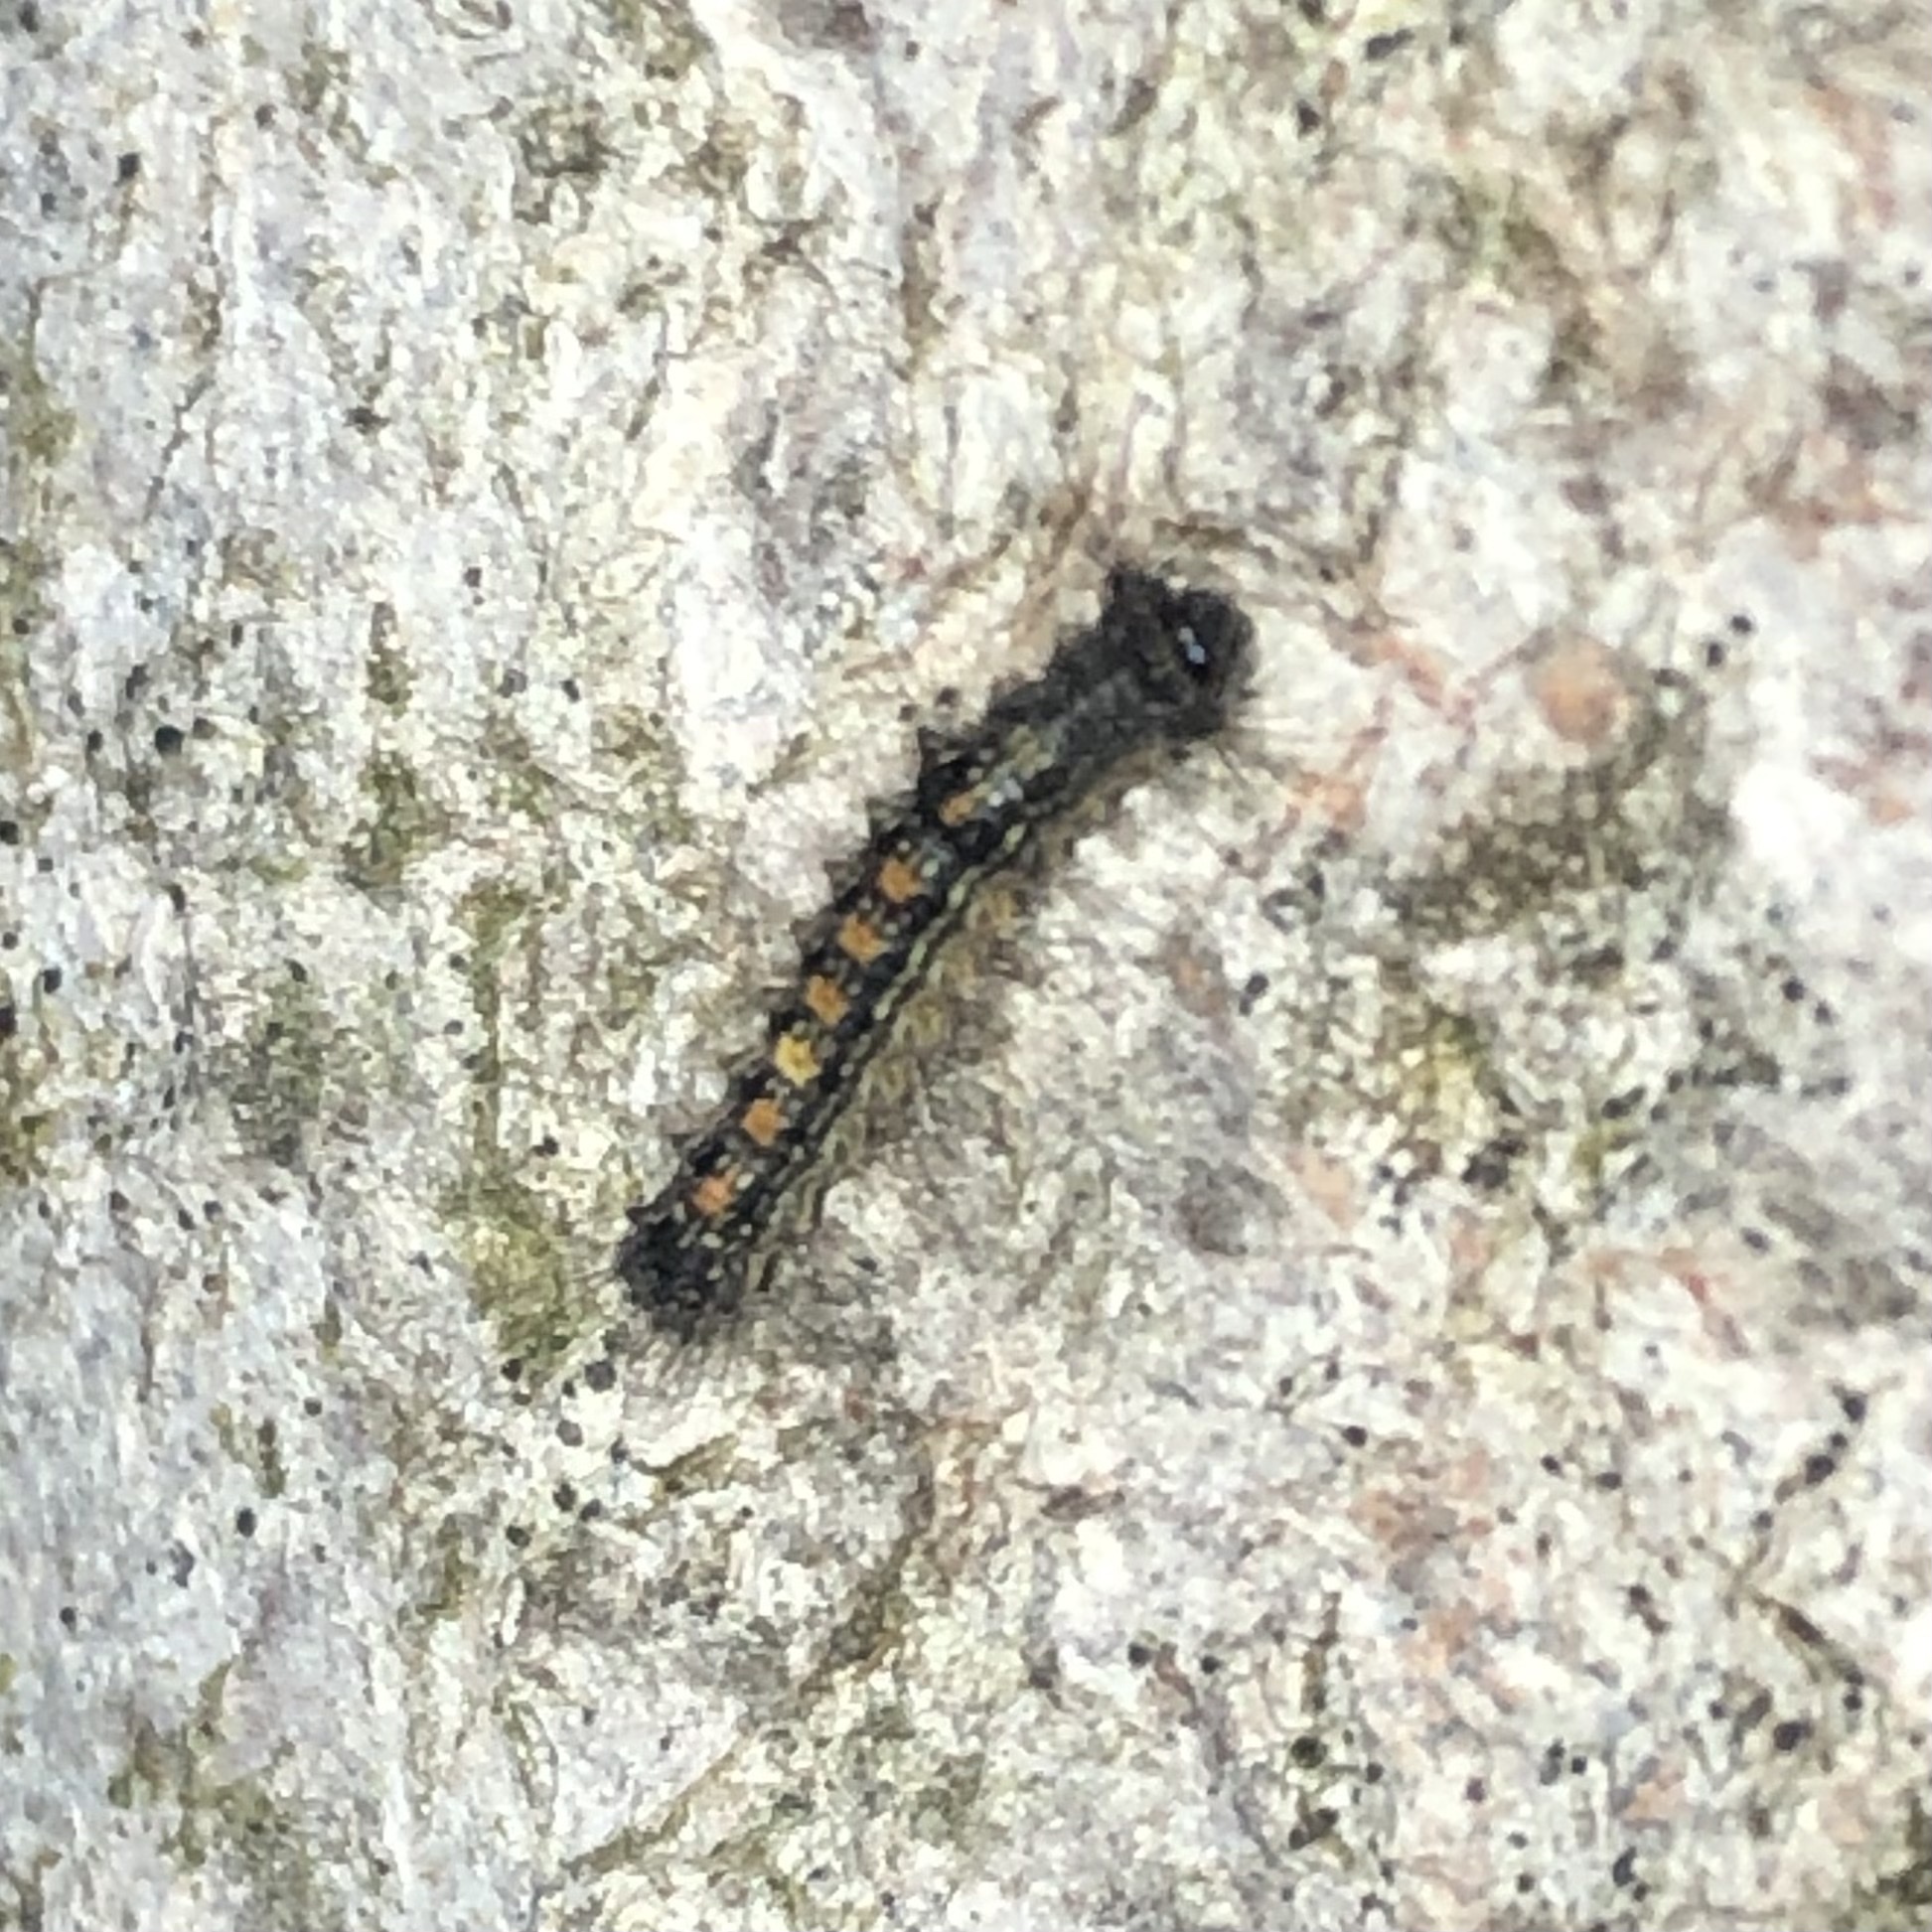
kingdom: Animalia
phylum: Arthropoda
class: Insecta
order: Lepidoptera
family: Erebidae
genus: Lymantria
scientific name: Lymantria dispar
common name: Gypsy moth
